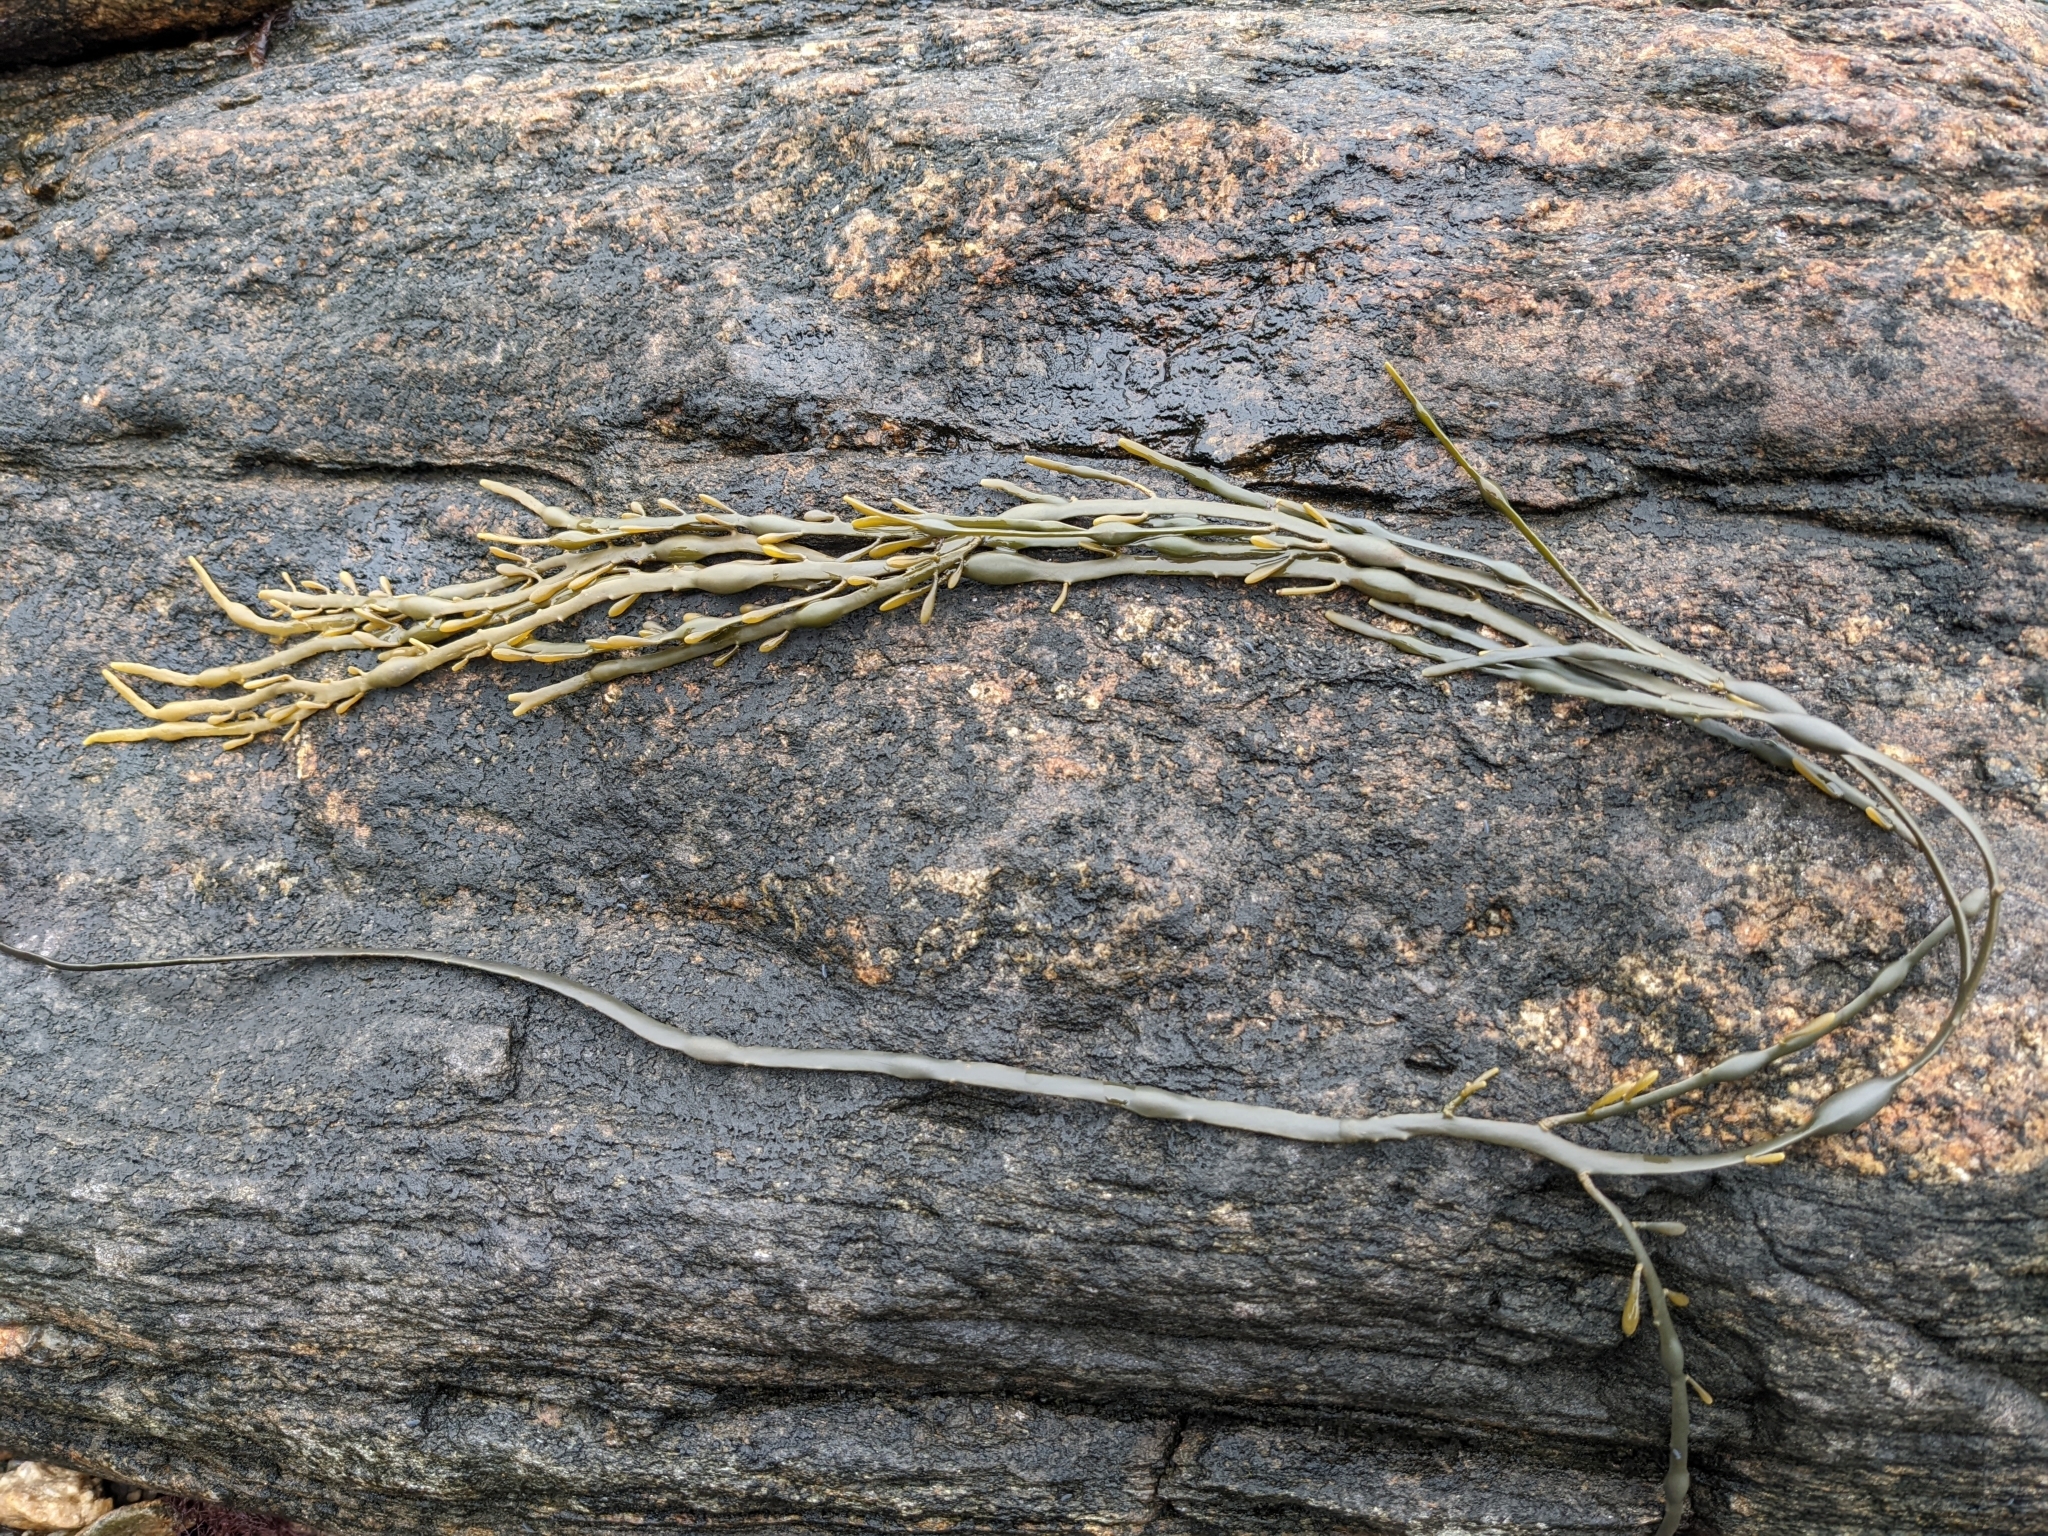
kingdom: Chromista
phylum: Ochrophyta
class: Phaeophyceae
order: Fucales
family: Fucaceae
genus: Ascophyllum
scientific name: Ascophyllum nodosum
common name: Knotted wrack
